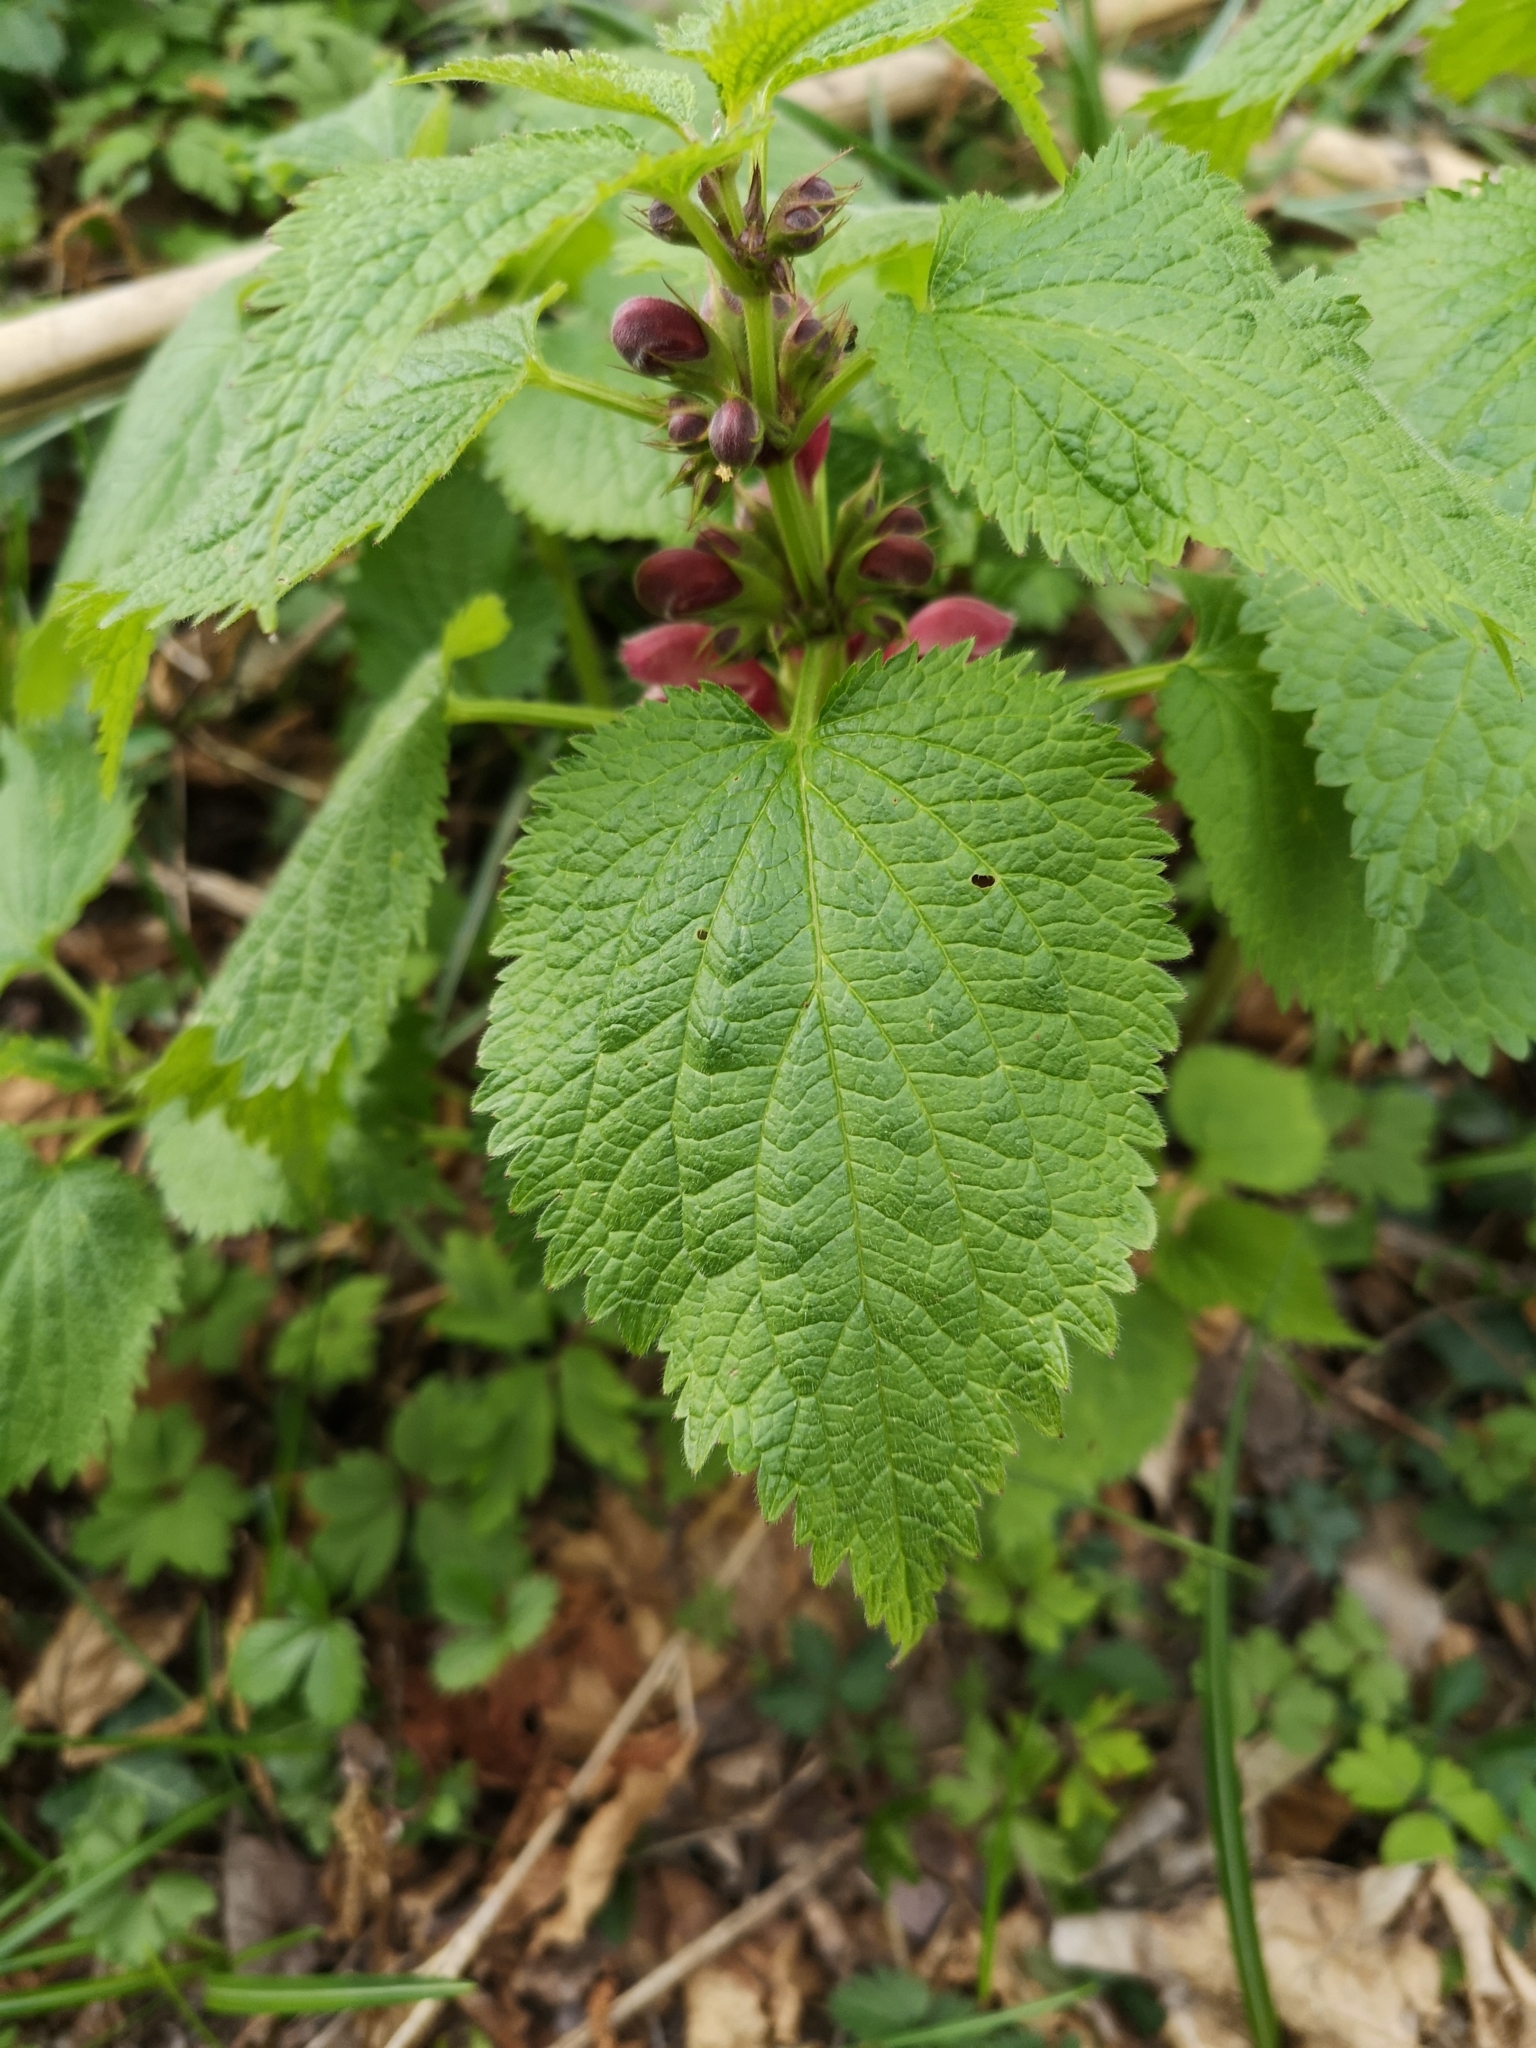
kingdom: Plantae
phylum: Tracheophyta
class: Magnoliopsida
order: Lamiales
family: Lamiaceae
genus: Lamium
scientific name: Lamium orvala
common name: Balm-leaved archangel
